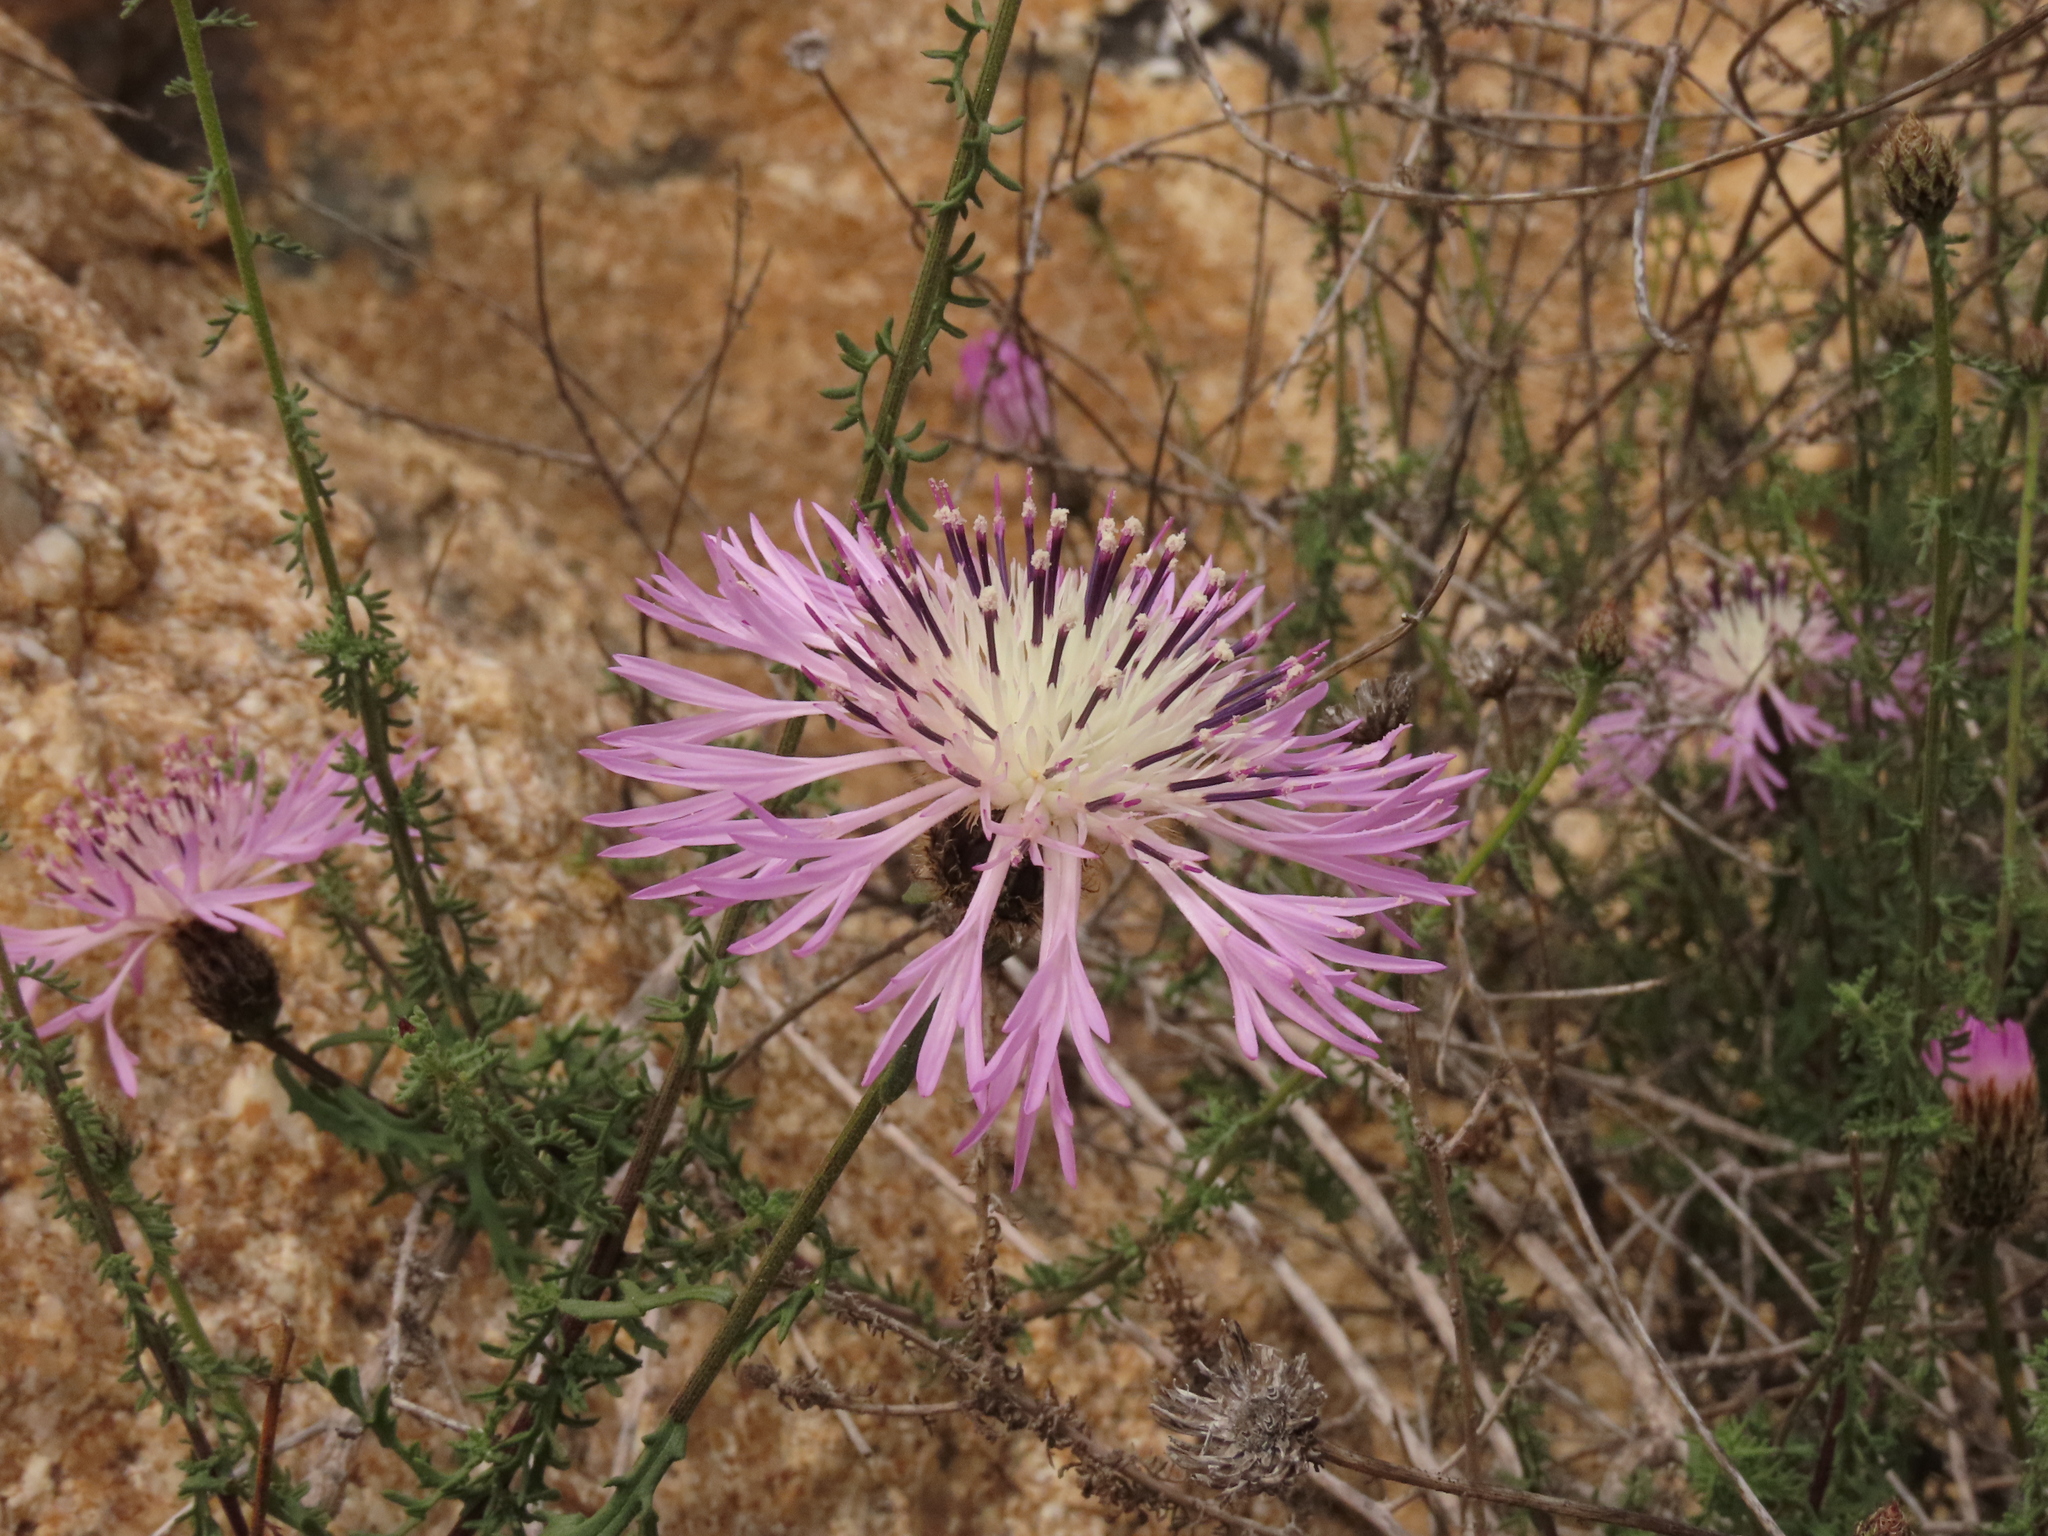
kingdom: Plantae
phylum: Tracheophyta
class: Magnoliopsida
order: Asterales
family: Asteraceae
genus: Plectocephalus
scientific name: Plectocephalus cachinalensis
